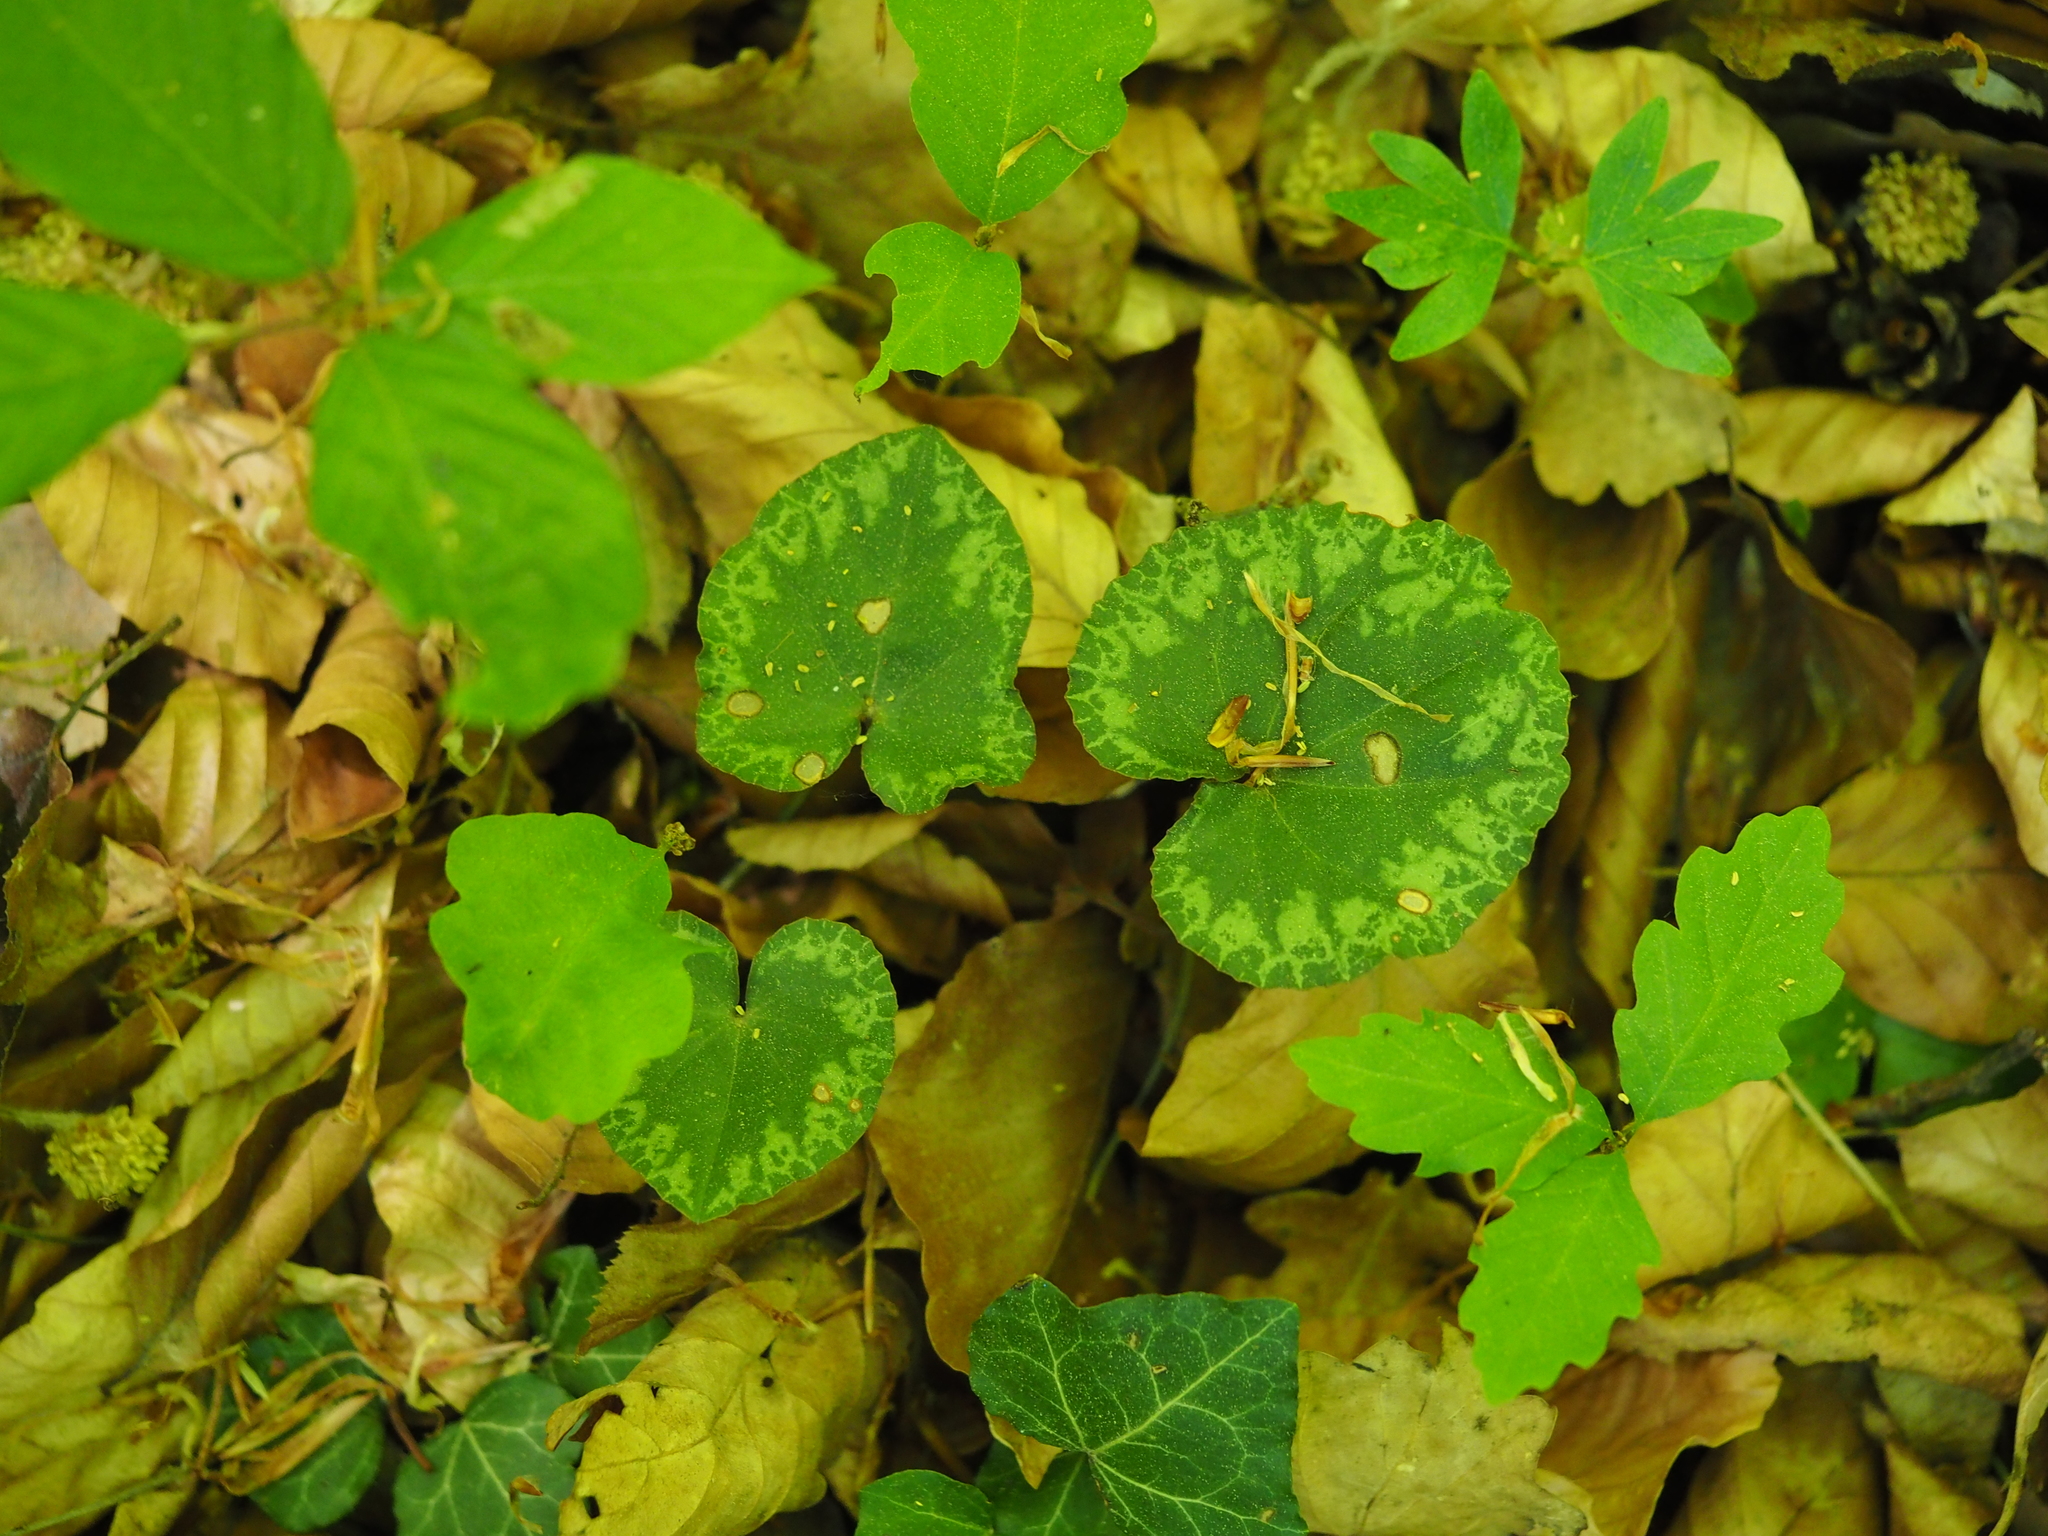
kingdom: Plantae
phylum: Tracheophyta
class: Magnoliopsida
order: Ericales
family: Primulaceae
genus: Cyclamen
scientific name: Cyclamen purpurascens
